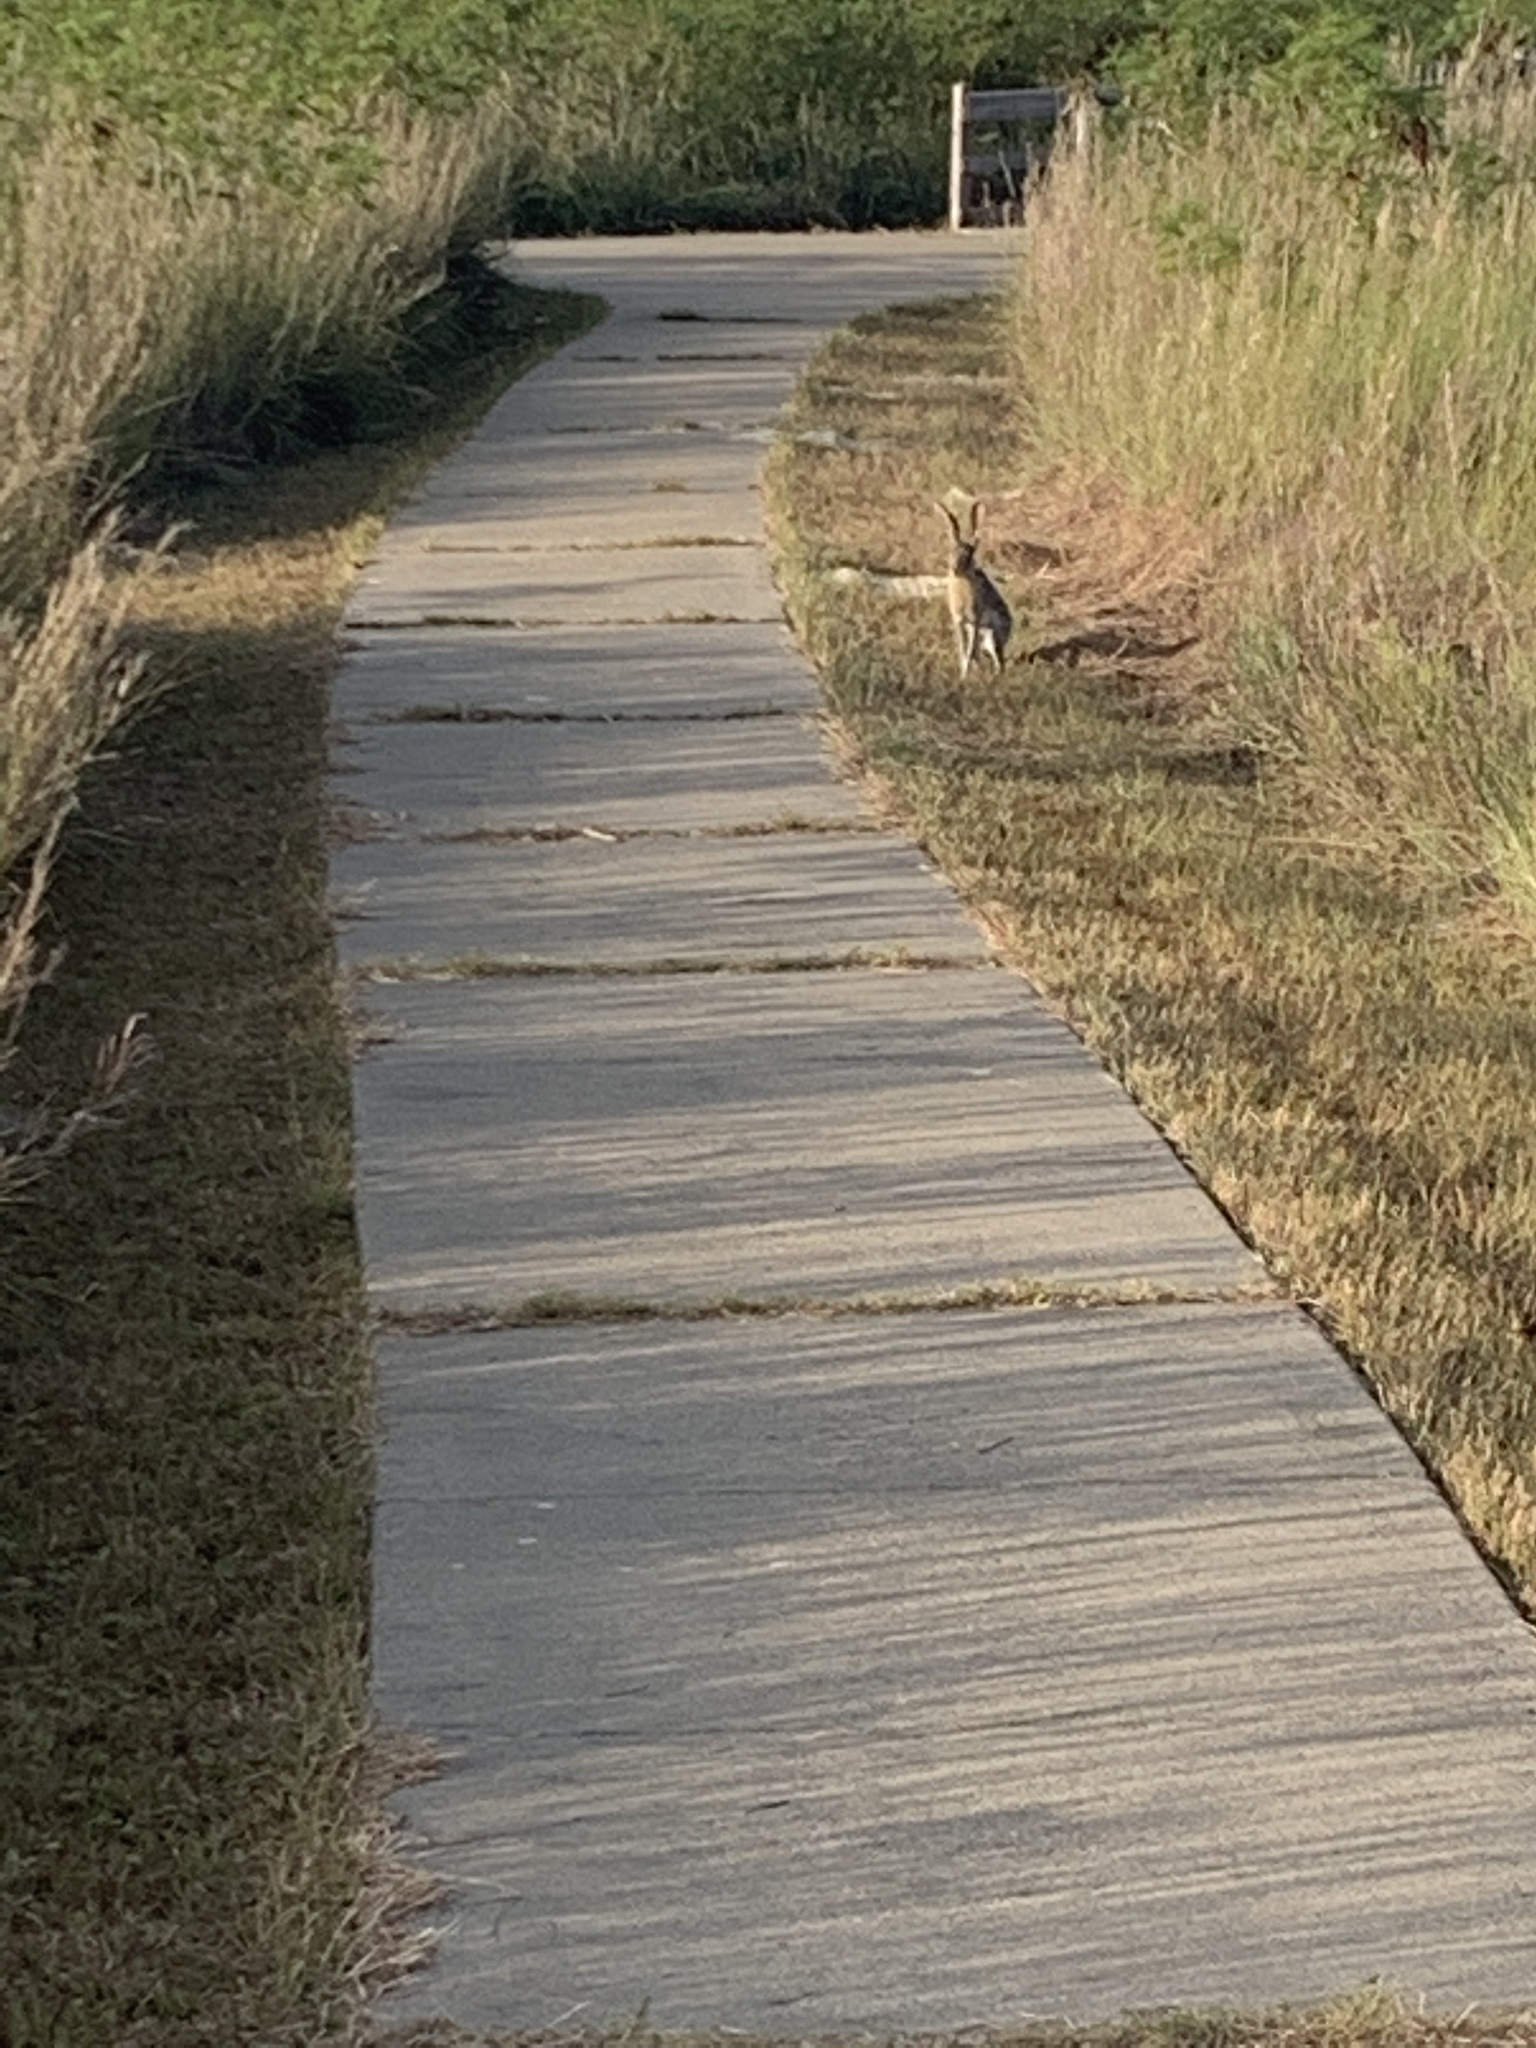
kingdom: Animalia
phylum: Chordata
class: Mammalia
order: Lagomorpha
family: Leporidae
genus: Lepus
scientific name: Lepus californicus
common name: Black-tailed jackrabbit
